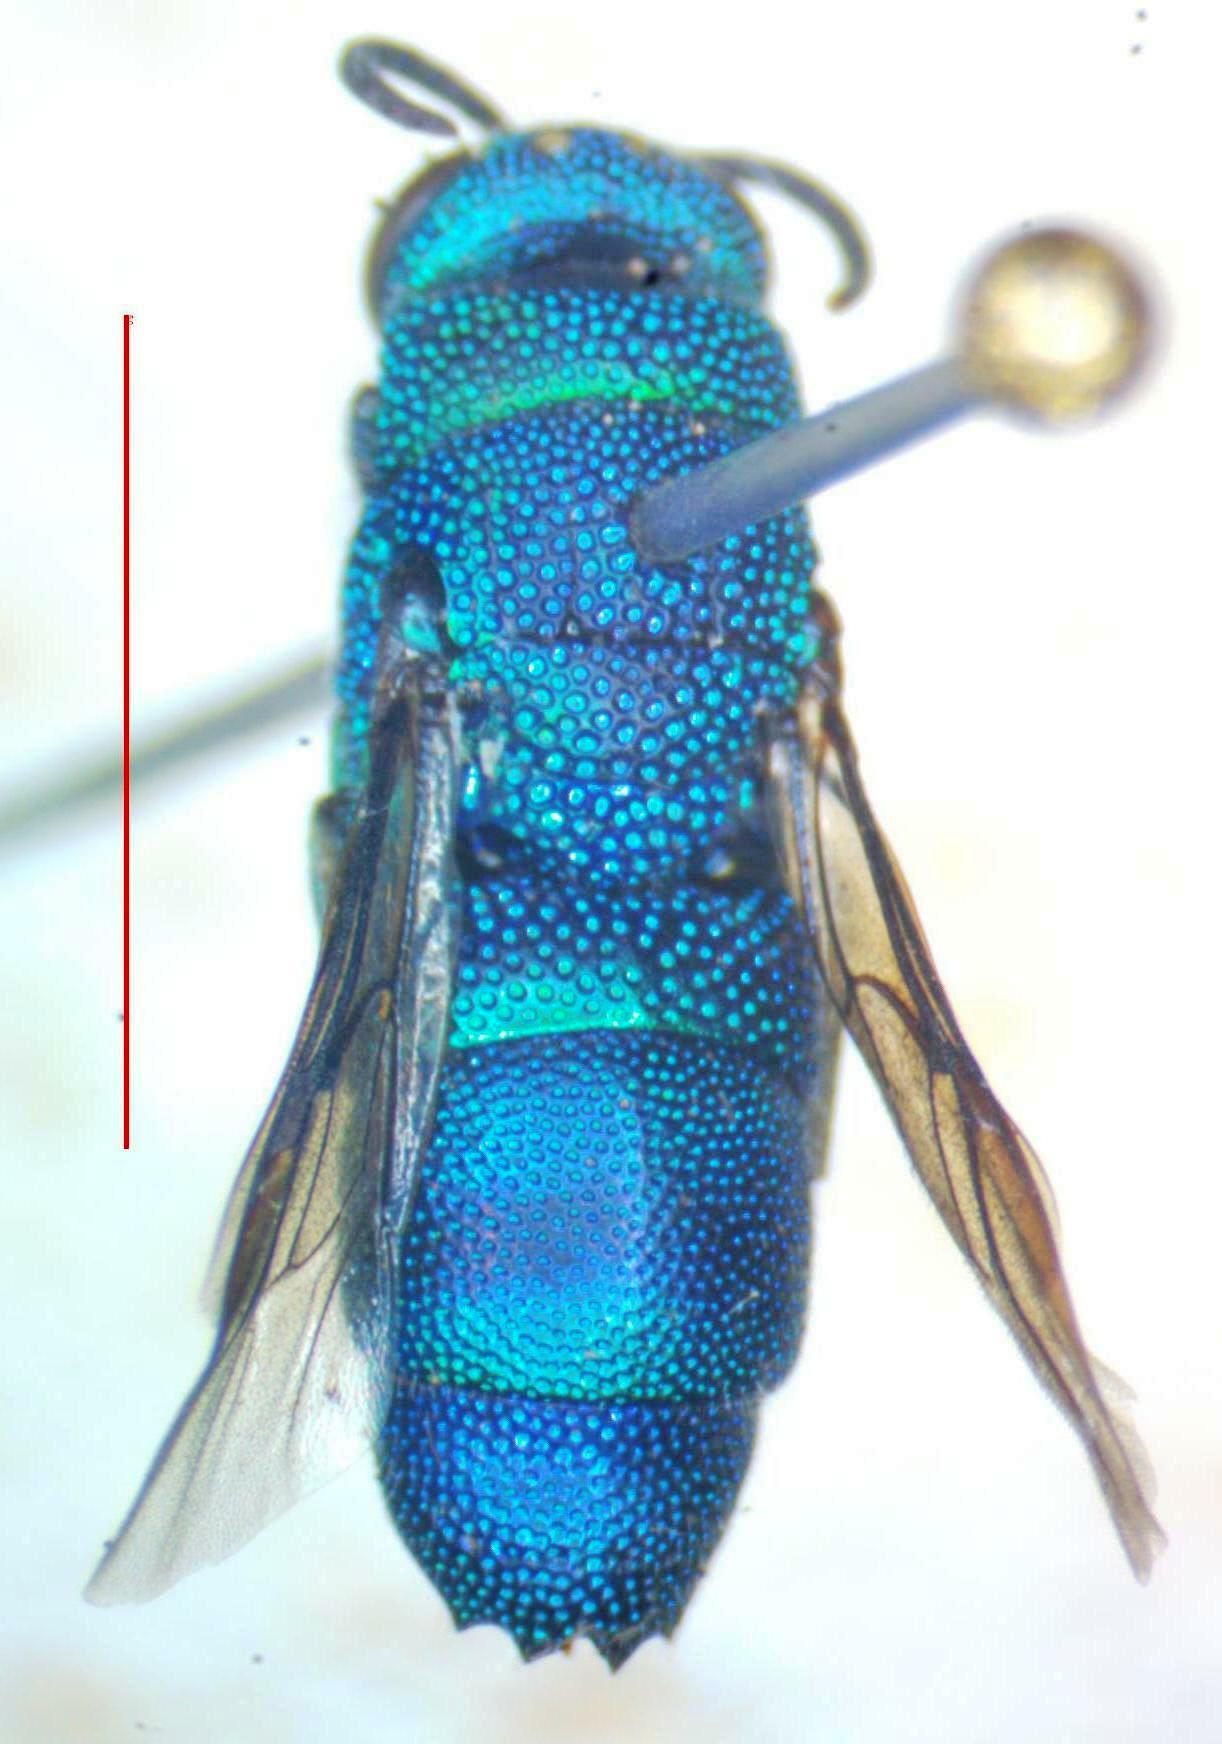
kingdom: Animalia
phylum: Arthropoda
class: Insecta
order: Hymenoptera
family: Chrysididae
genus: Neochrysis
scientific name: Neochrysis
